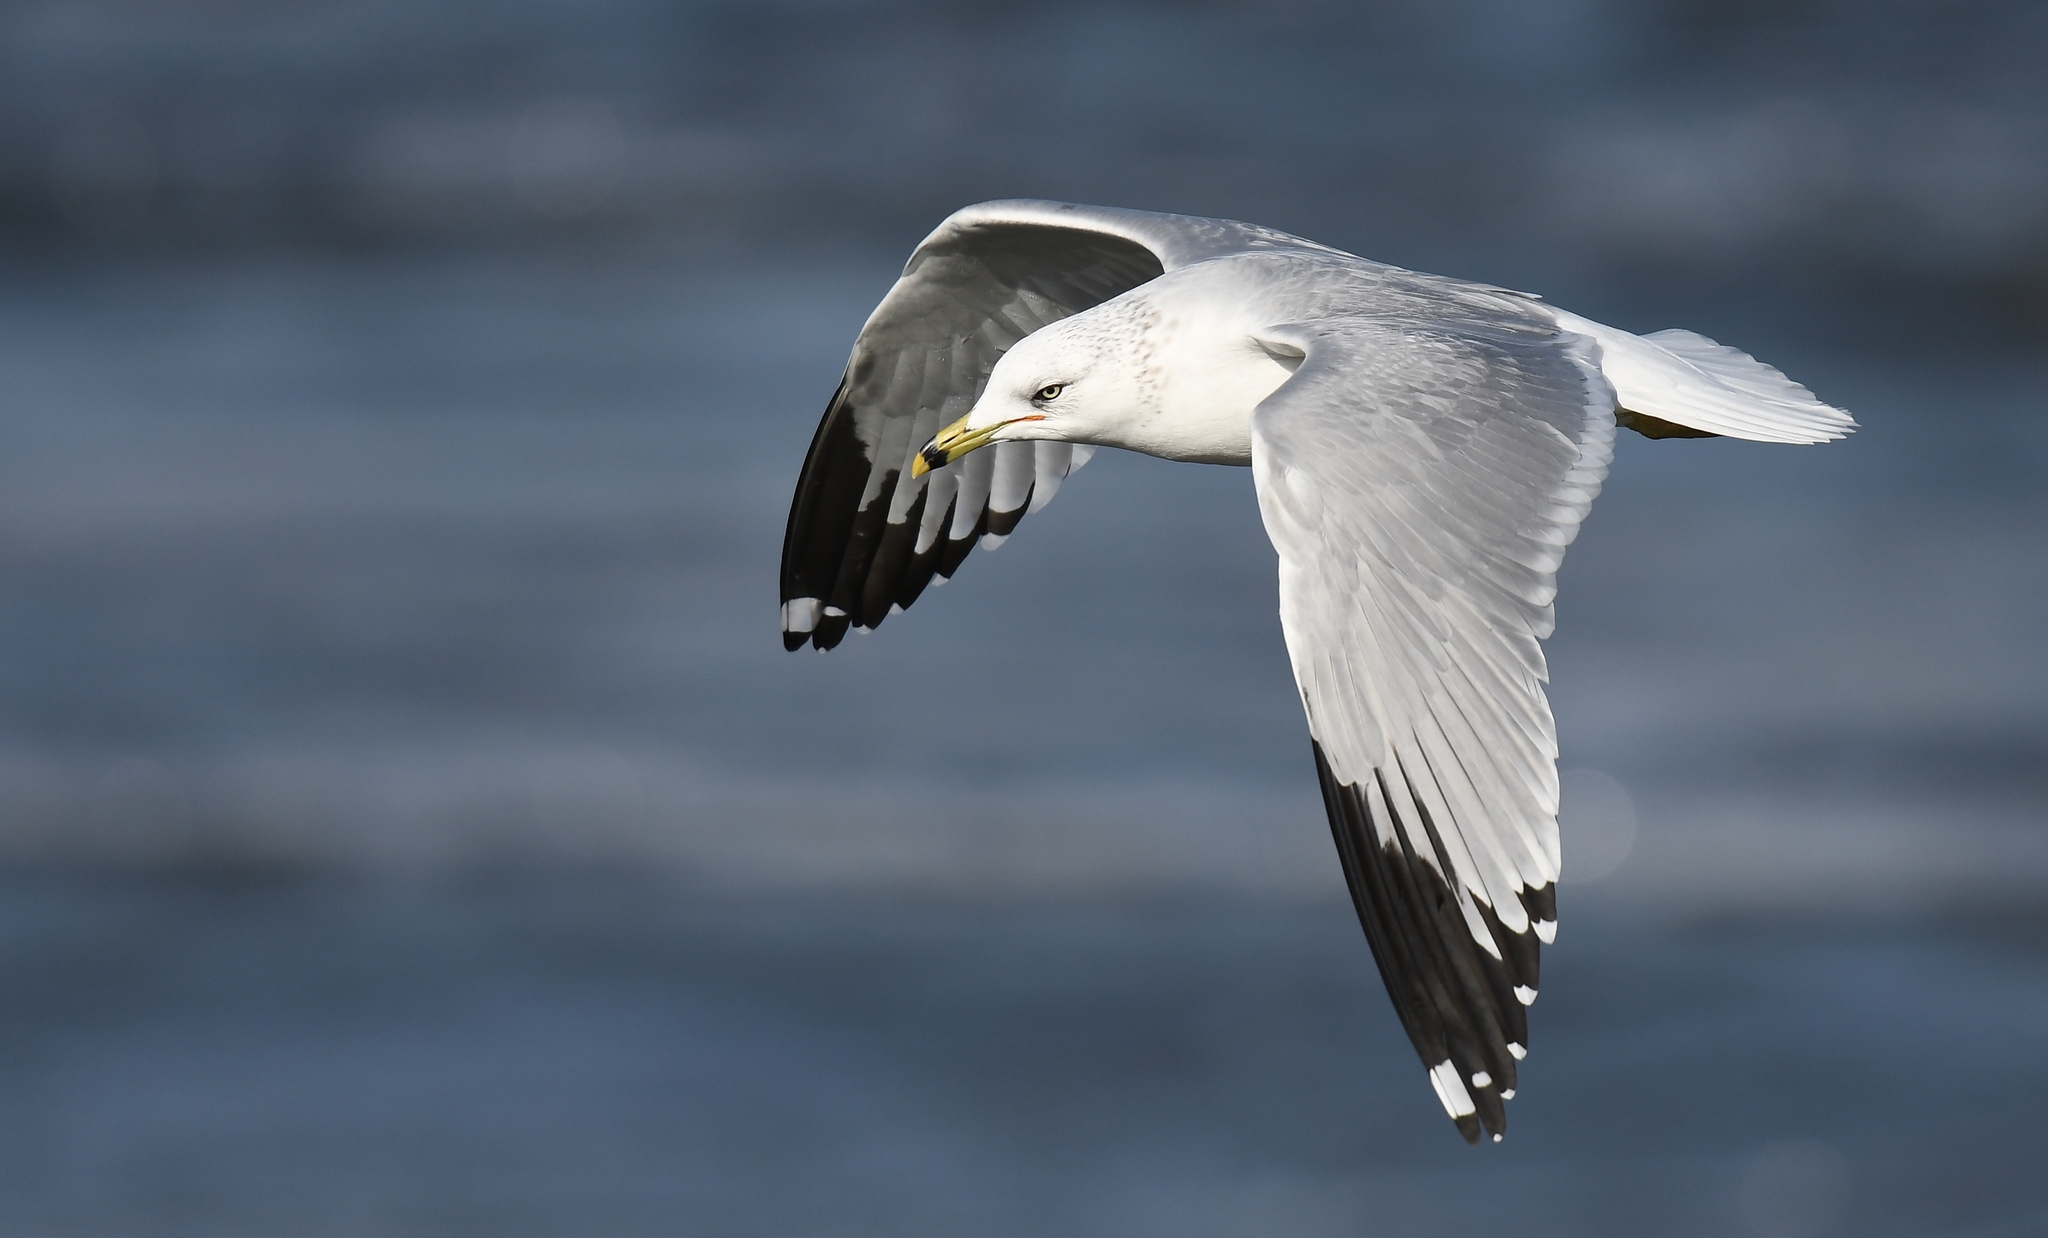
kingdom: Animalia
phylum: Chordata
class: Aves
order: Charadriiformes
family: Laridae
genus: Larus
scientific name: Larus delawarensis
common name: Ring-billed gull
